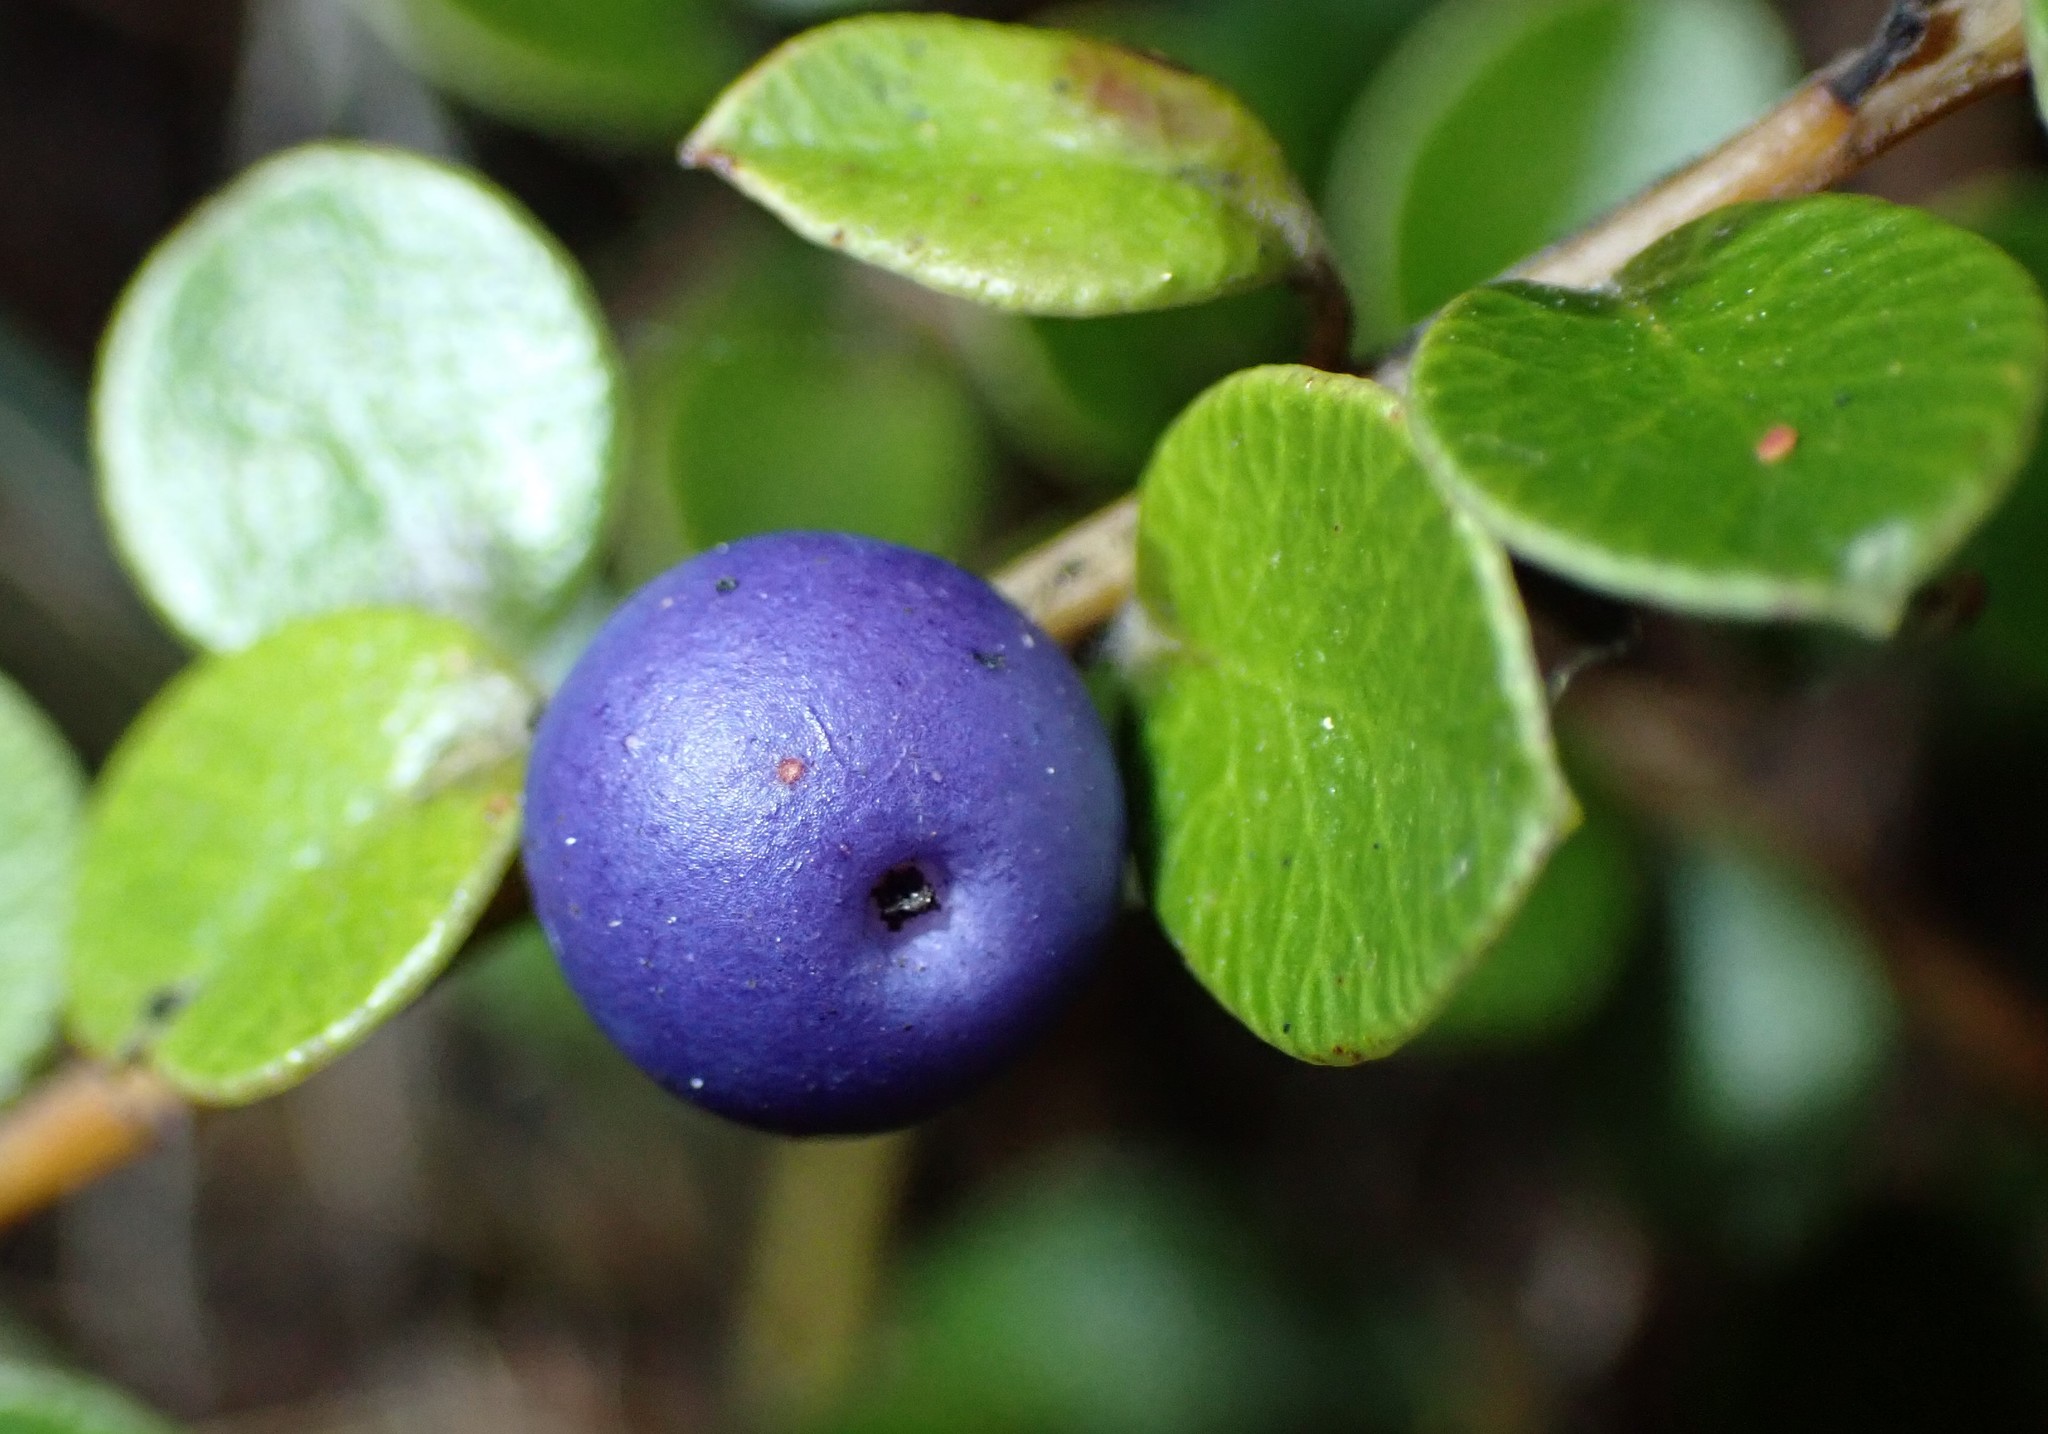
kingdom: Plantae
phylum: Tracheophyta
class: Magnoliopsida
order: Ericales
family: Primulaceae
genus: Myrsine
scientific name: Myrsine nummularia
